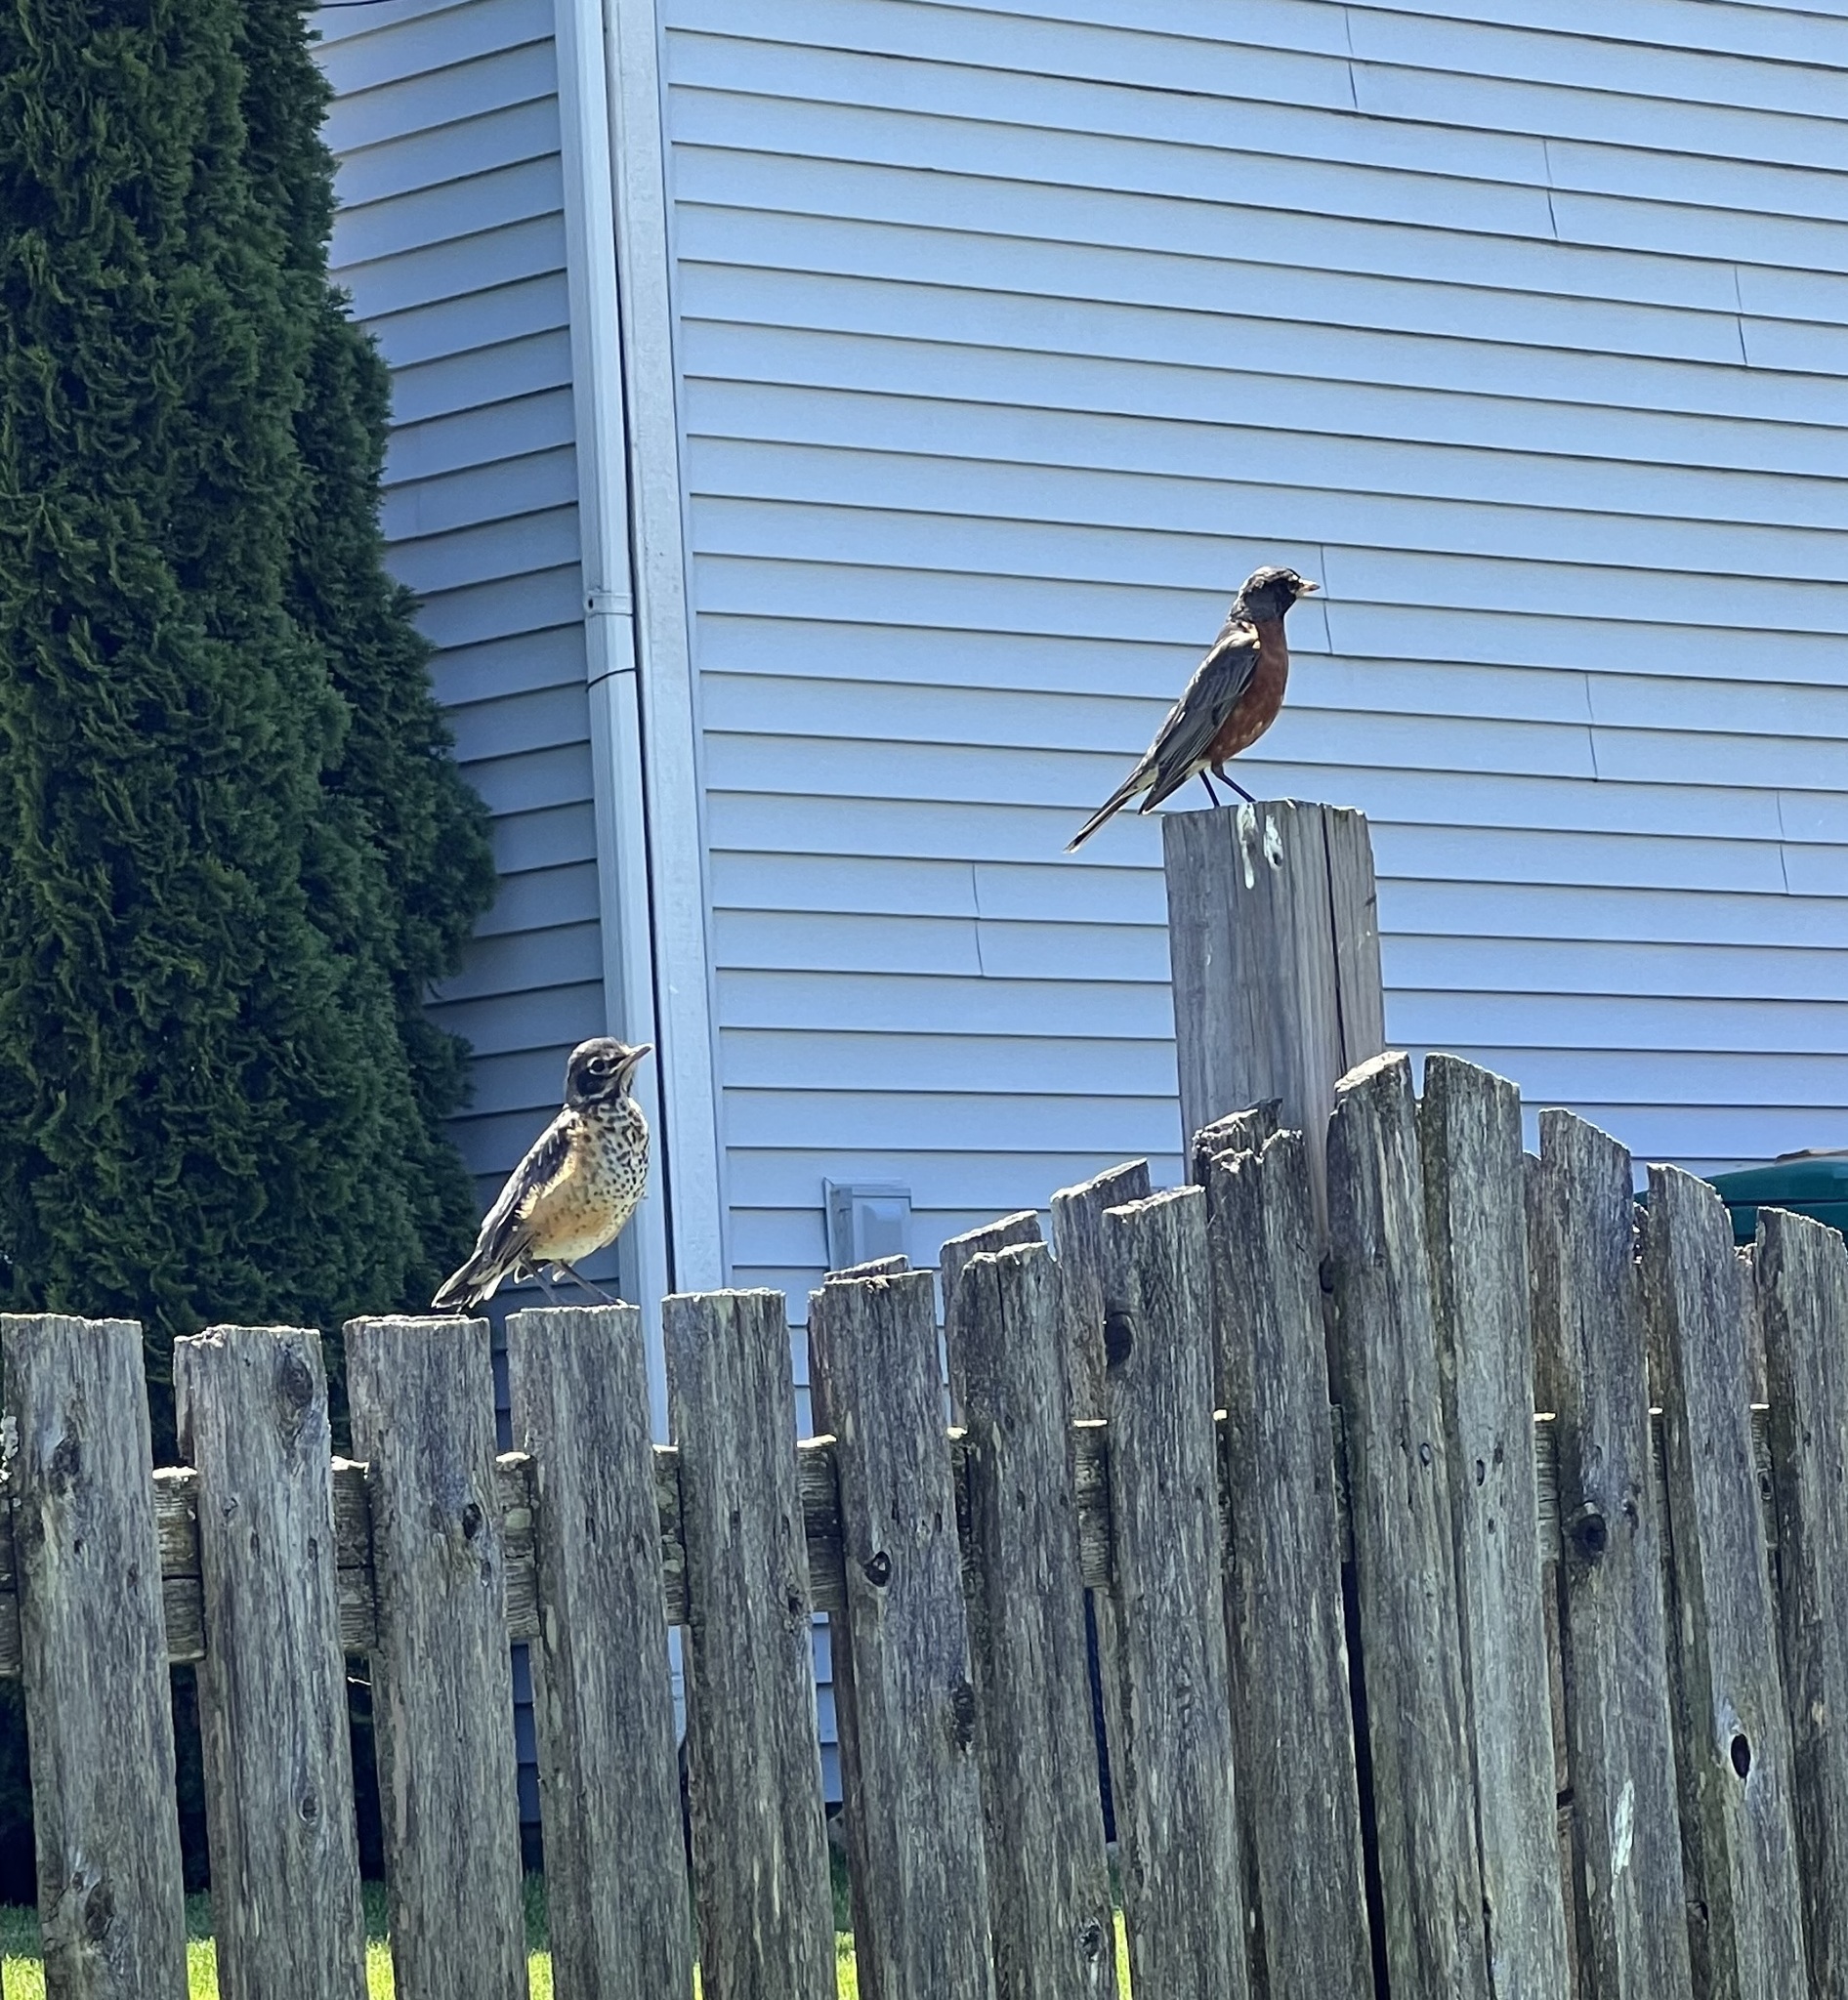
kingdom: Animalia
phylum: Chordata
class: Aves
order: Passeriformes
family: Turdidae
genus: Turdus
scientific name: Turdus migratorius
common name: American robin
